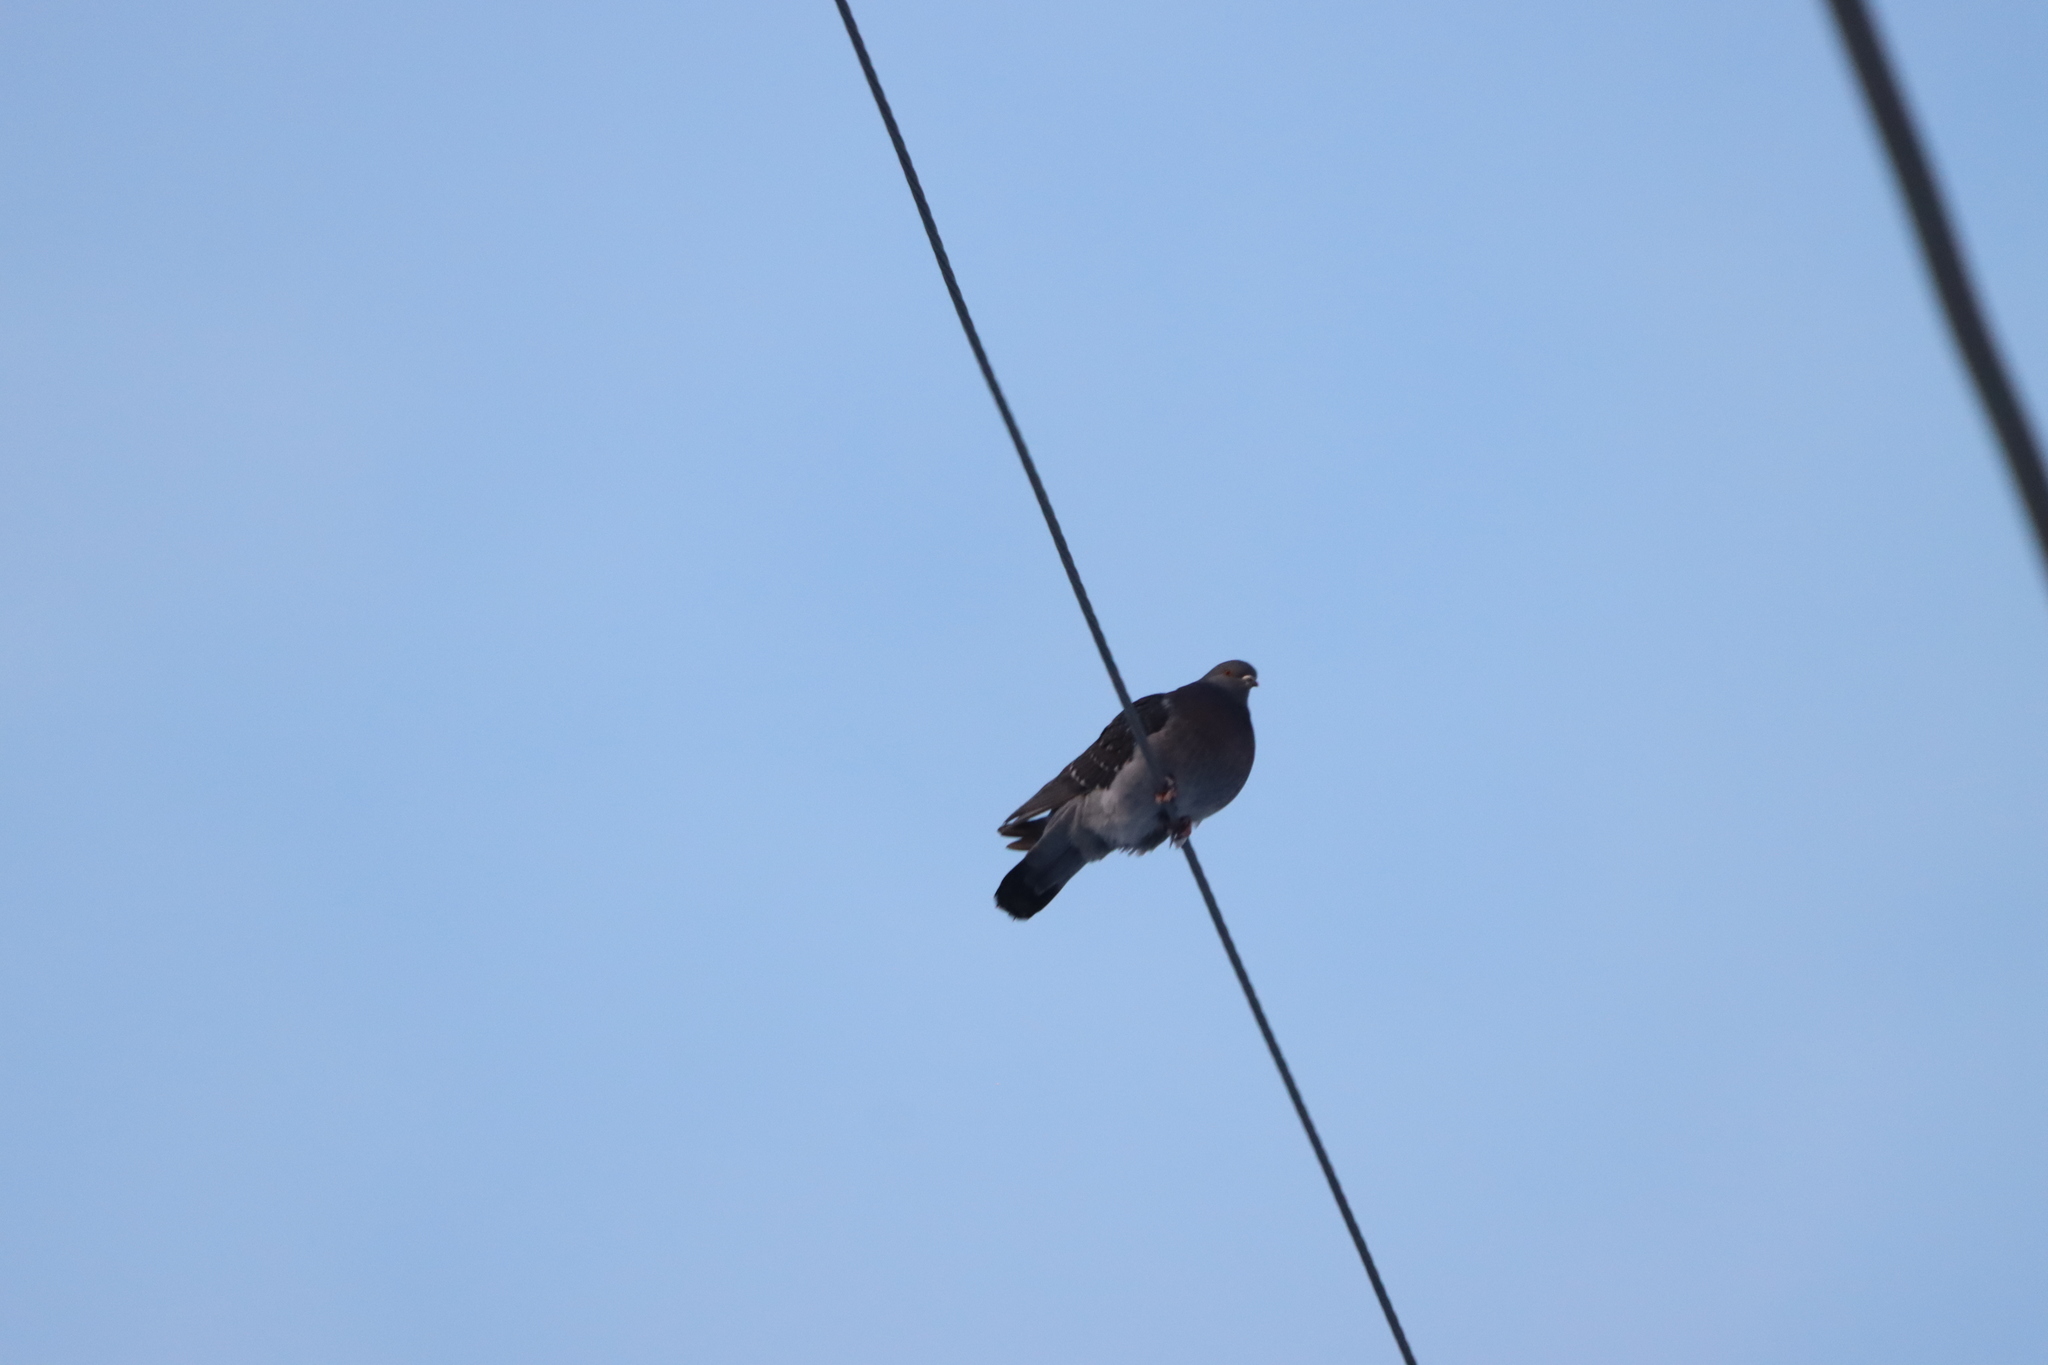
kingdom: Animalia
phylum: Chordata
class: Aves
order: Columbiformes
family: Columbidae
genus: Columba
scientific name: Columba livia
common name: Rock pigeon
